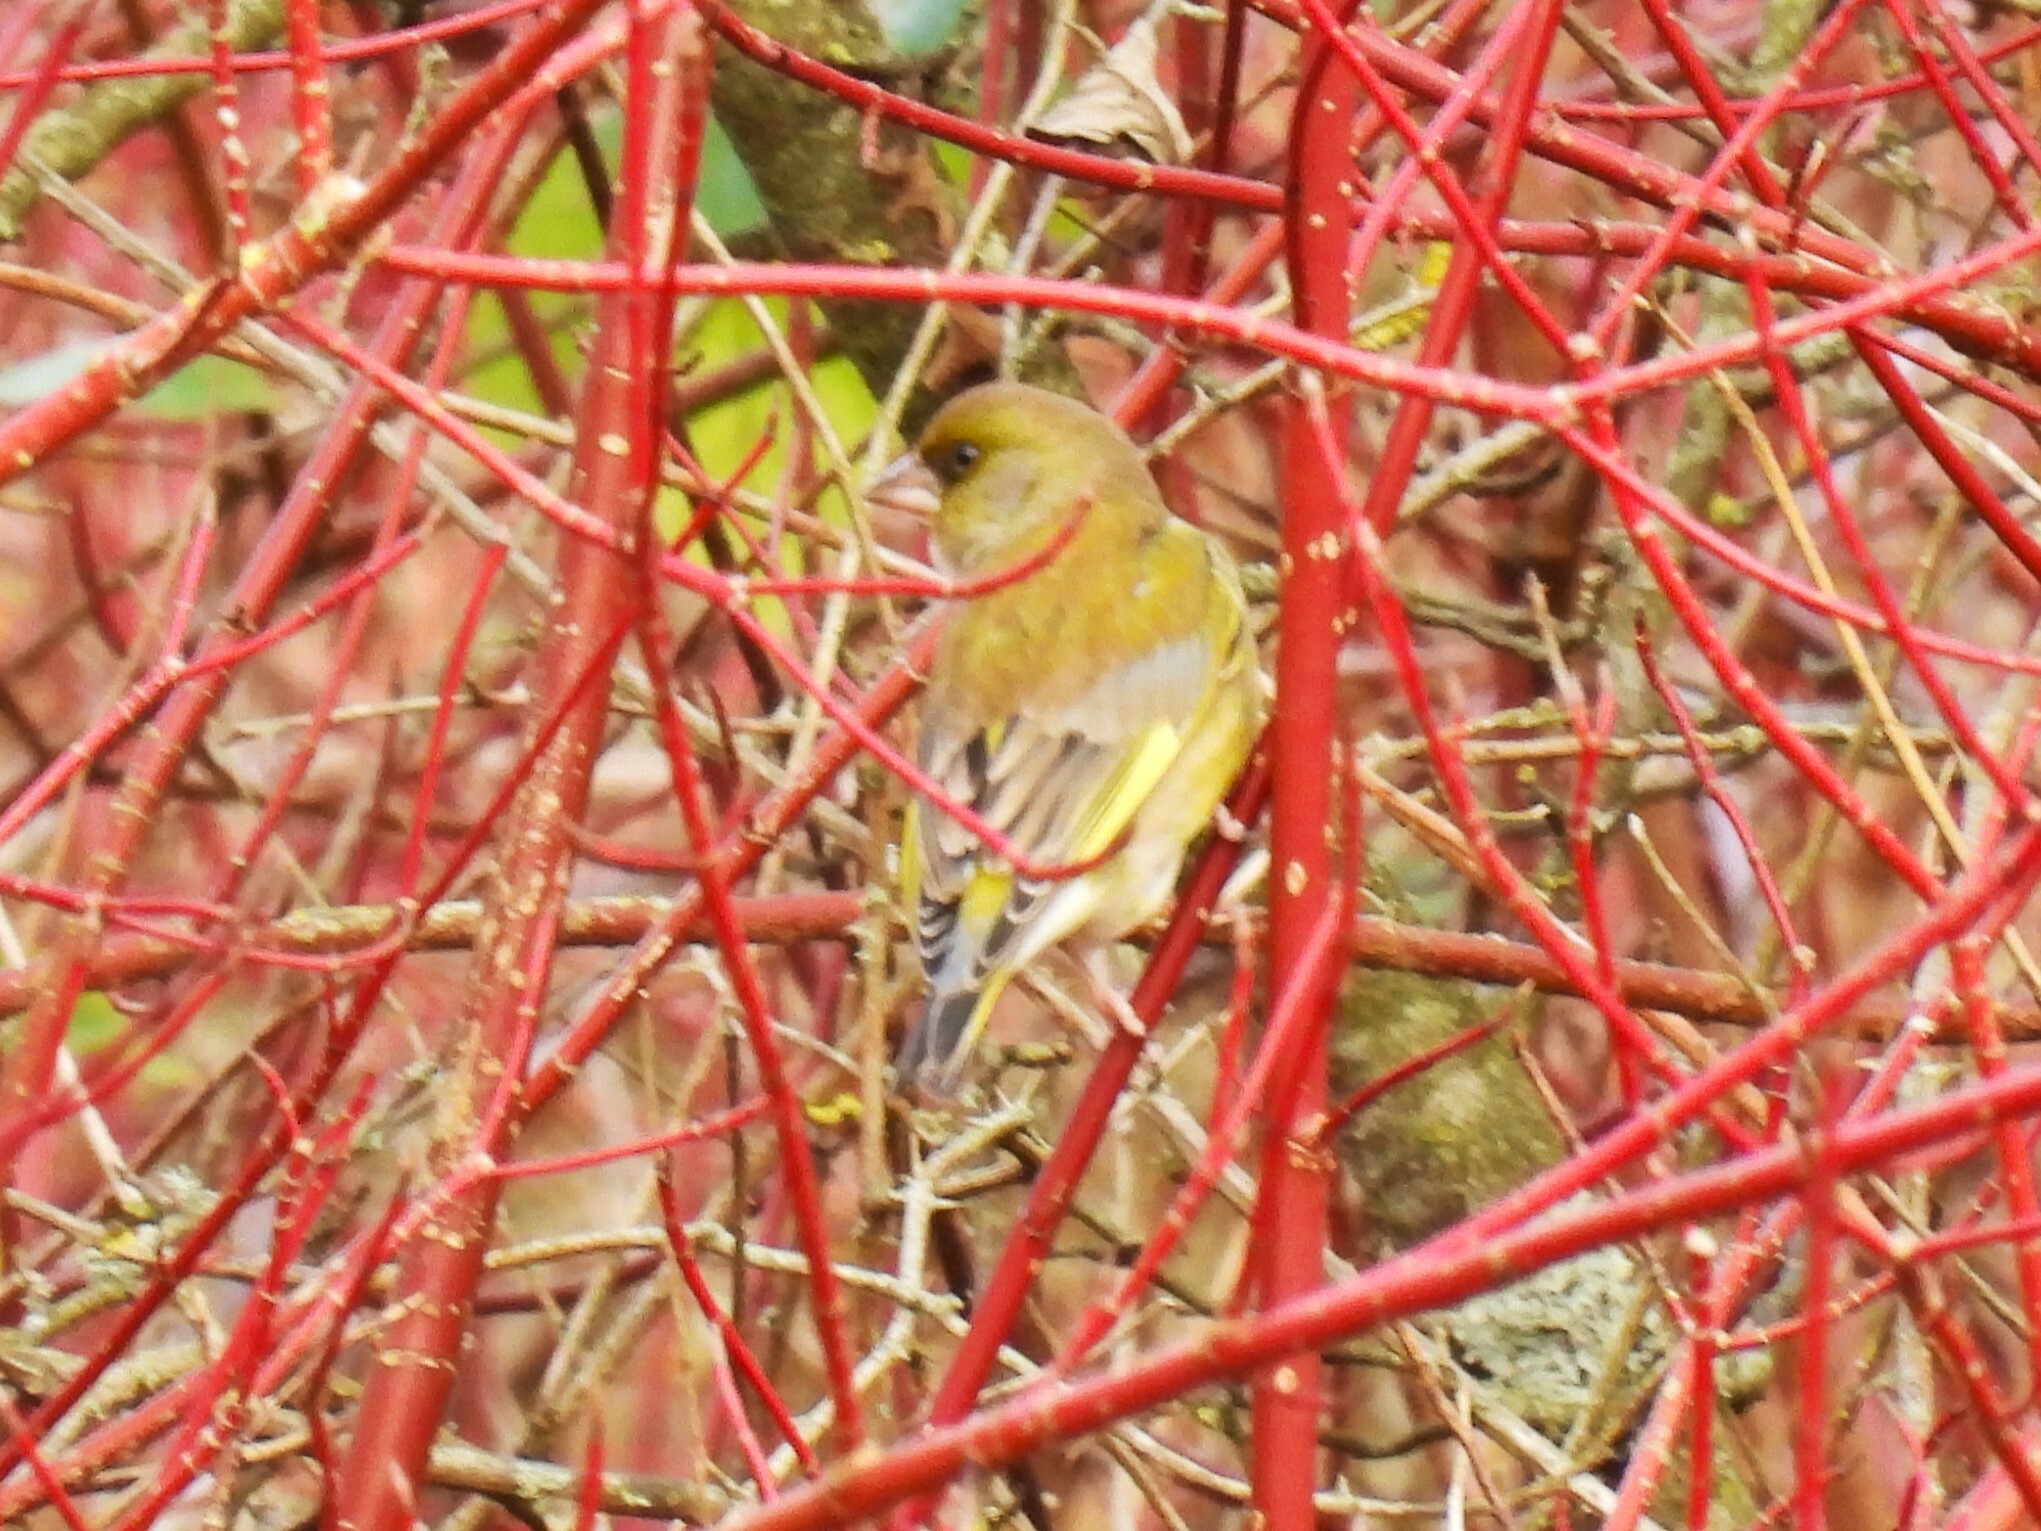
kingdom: Plantae
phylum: Tracheophyta
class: Liliopsida
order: Poales
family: Poaceae
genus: Chloris
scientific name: Chloris chloris
